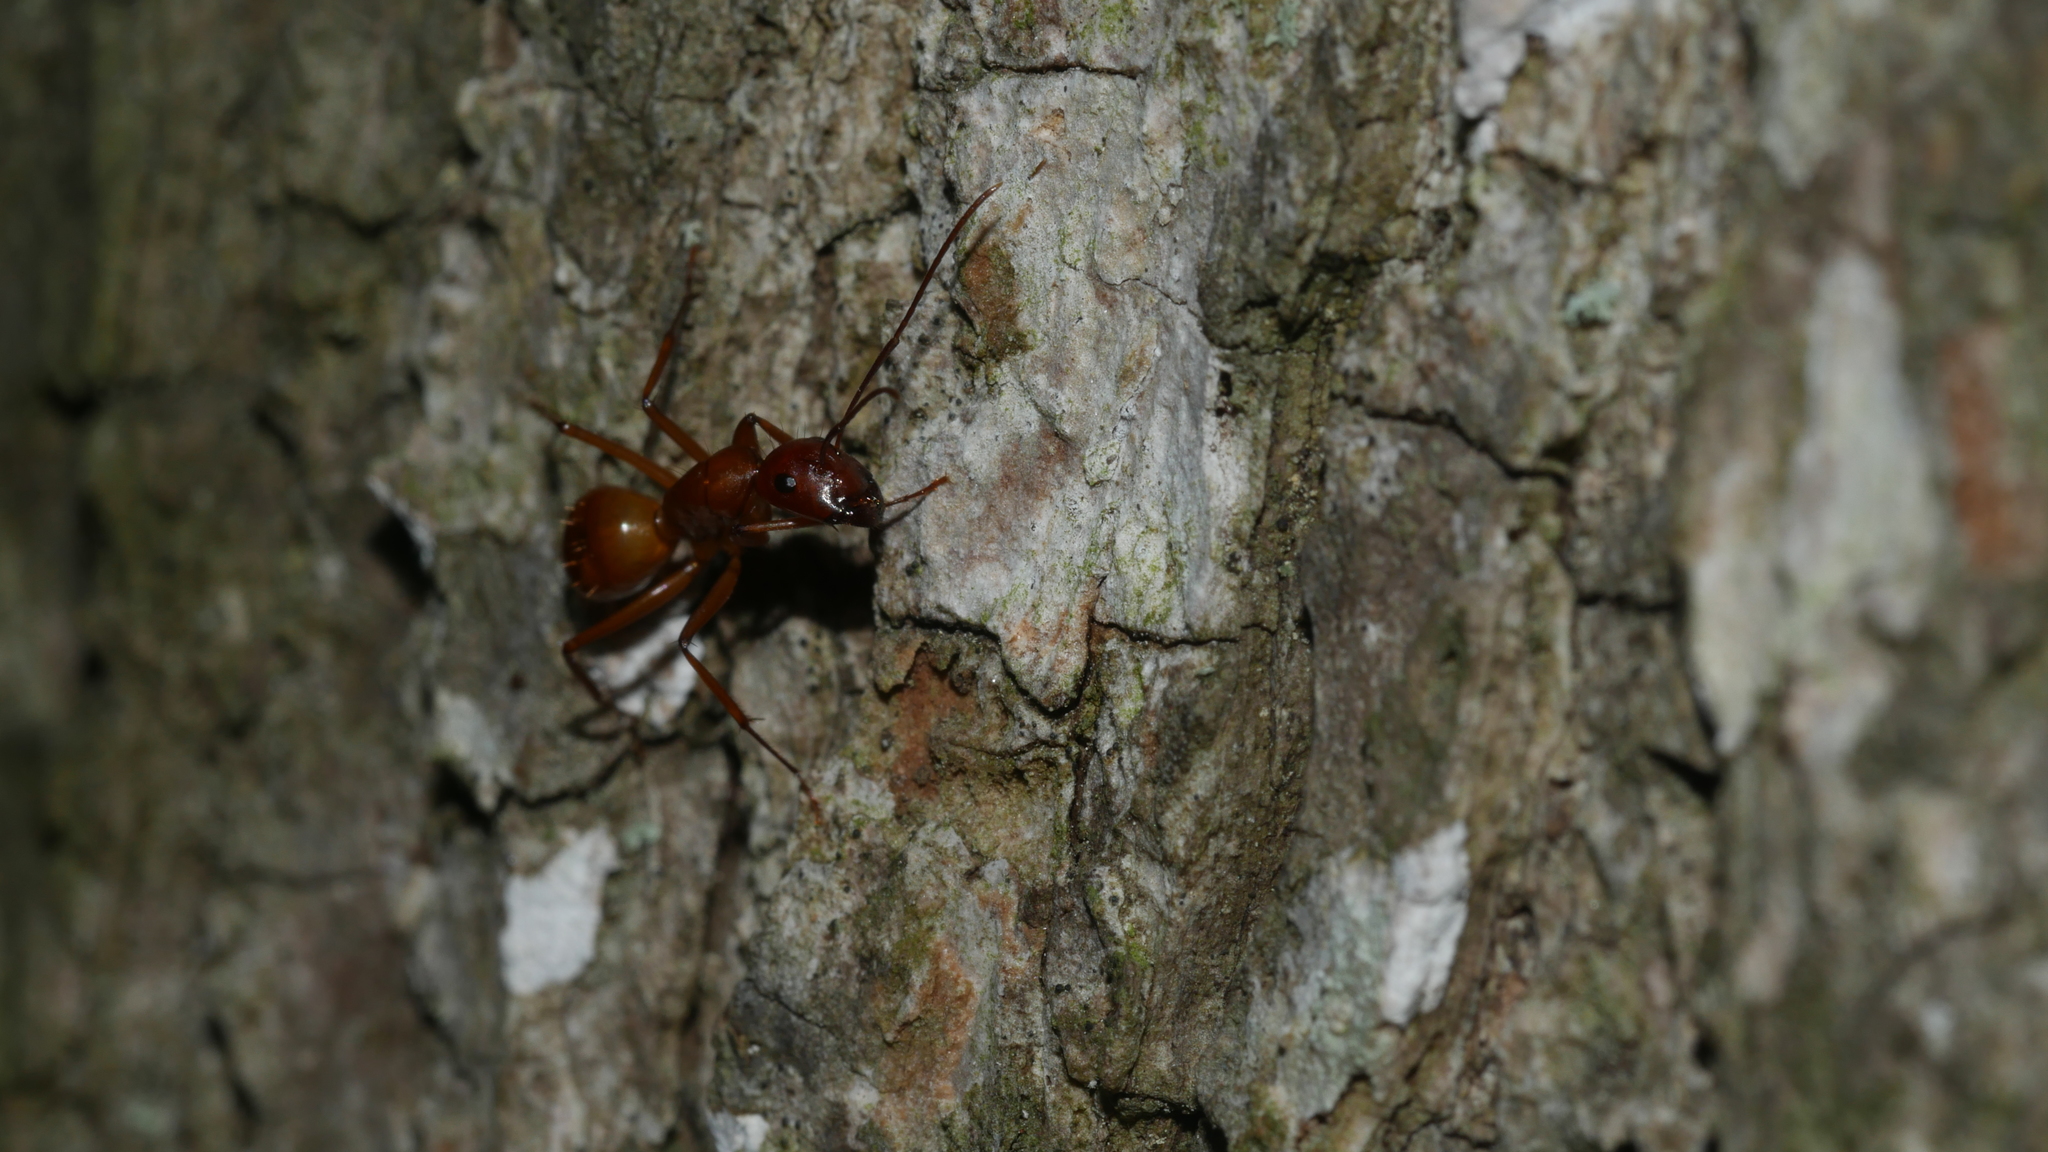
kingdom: Animalia
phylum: Arthropoda
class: Insecta
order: Hymenoptera
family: Formicidae
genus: Camponotus
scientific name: Camponotus castaneus
